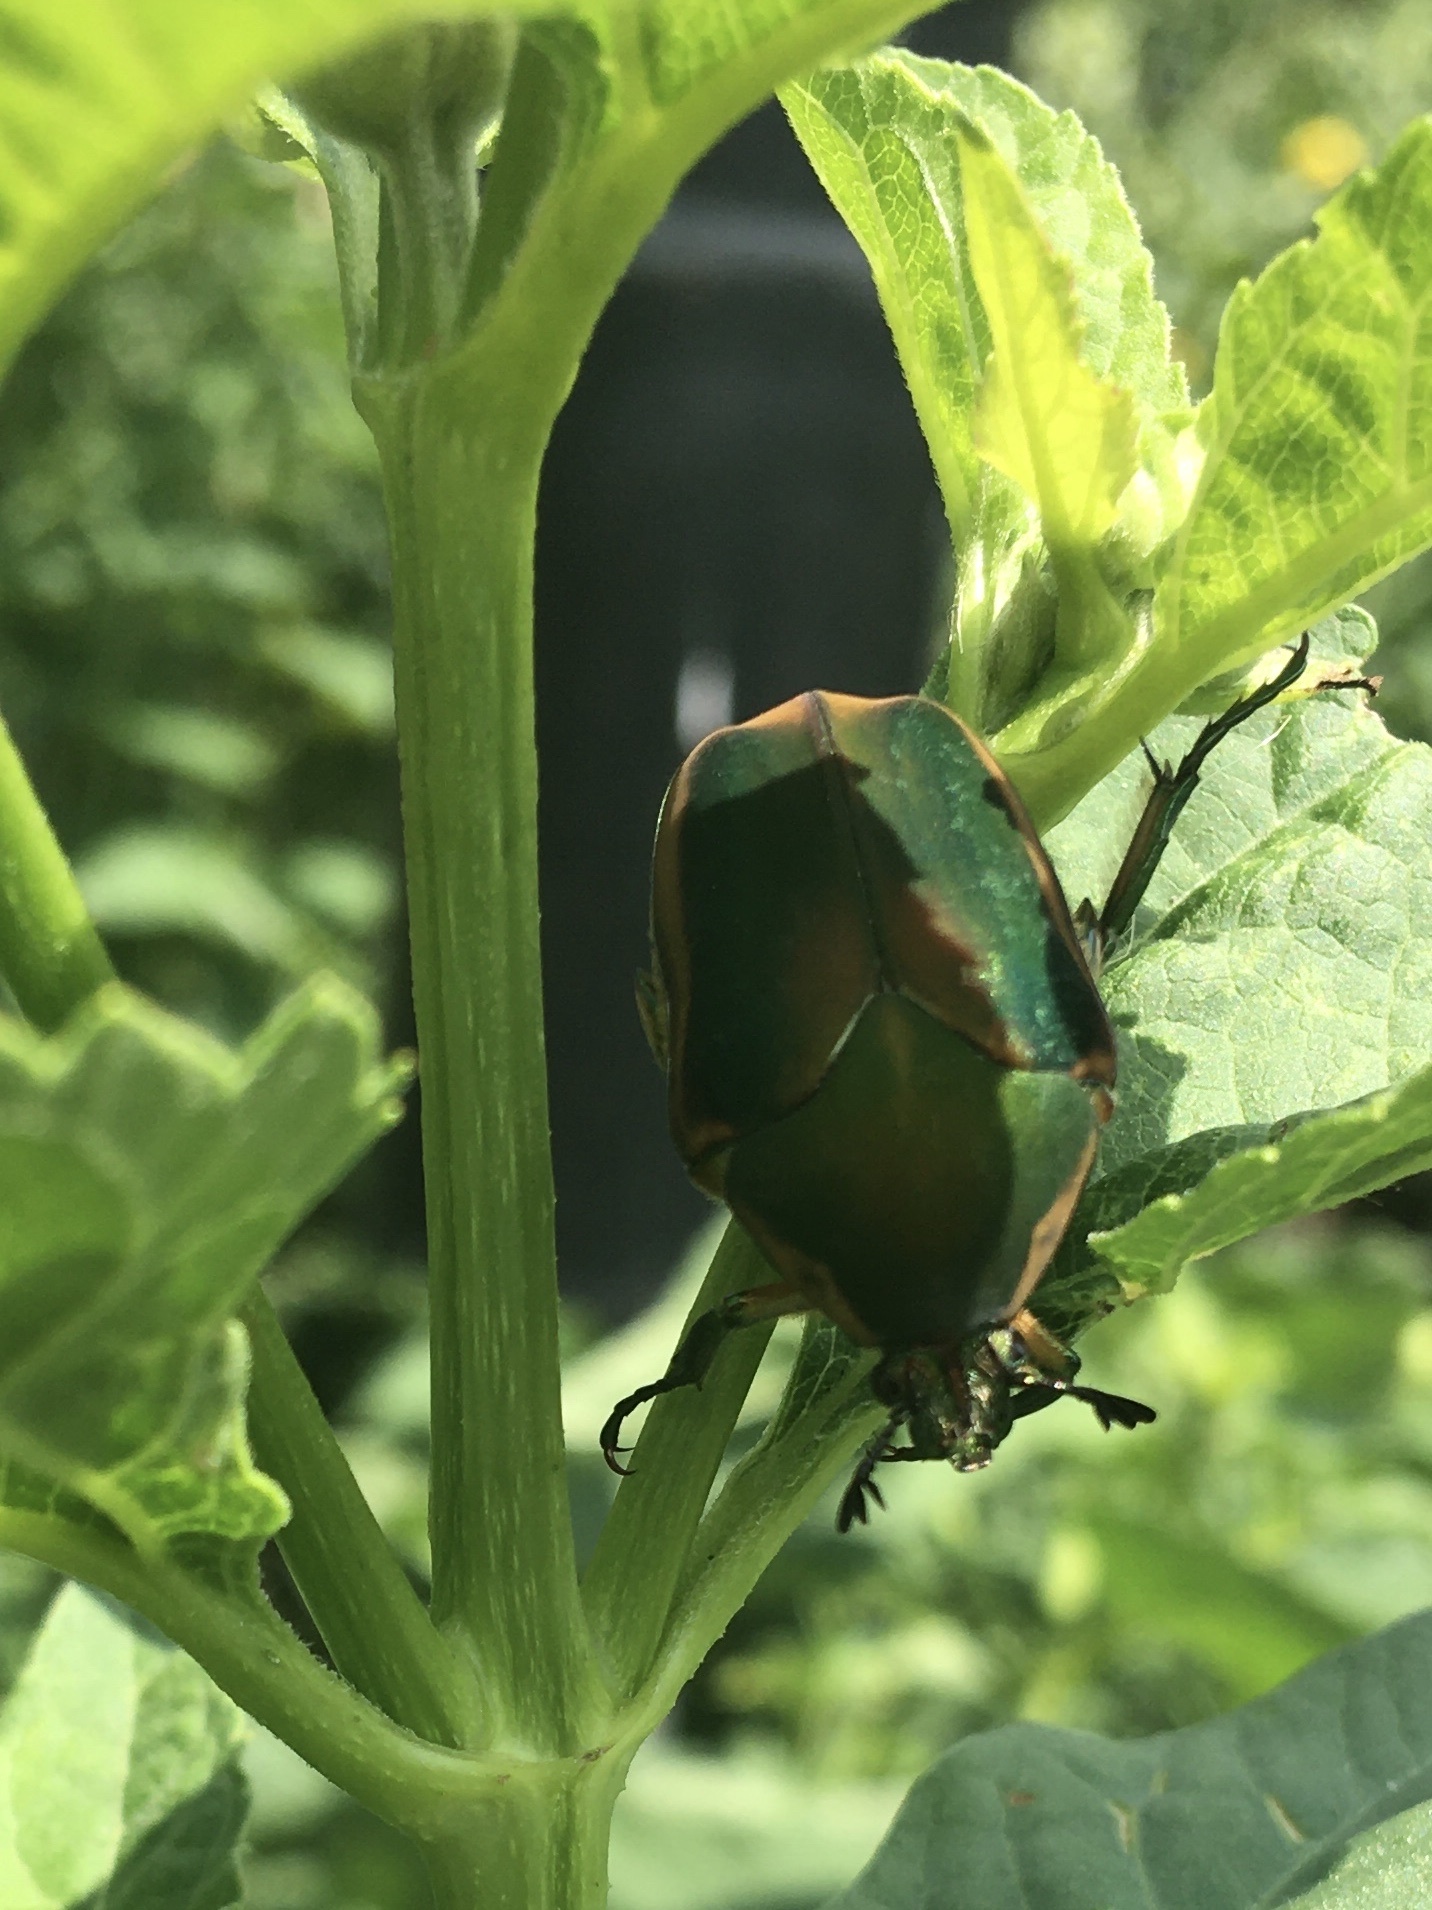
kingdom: Animalia
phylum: Arthropoda
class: Insecta
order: Coleoptera
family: Scarabaeidae
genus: Cotinis
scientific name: Cotinis nitida
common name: Common green june beetle
